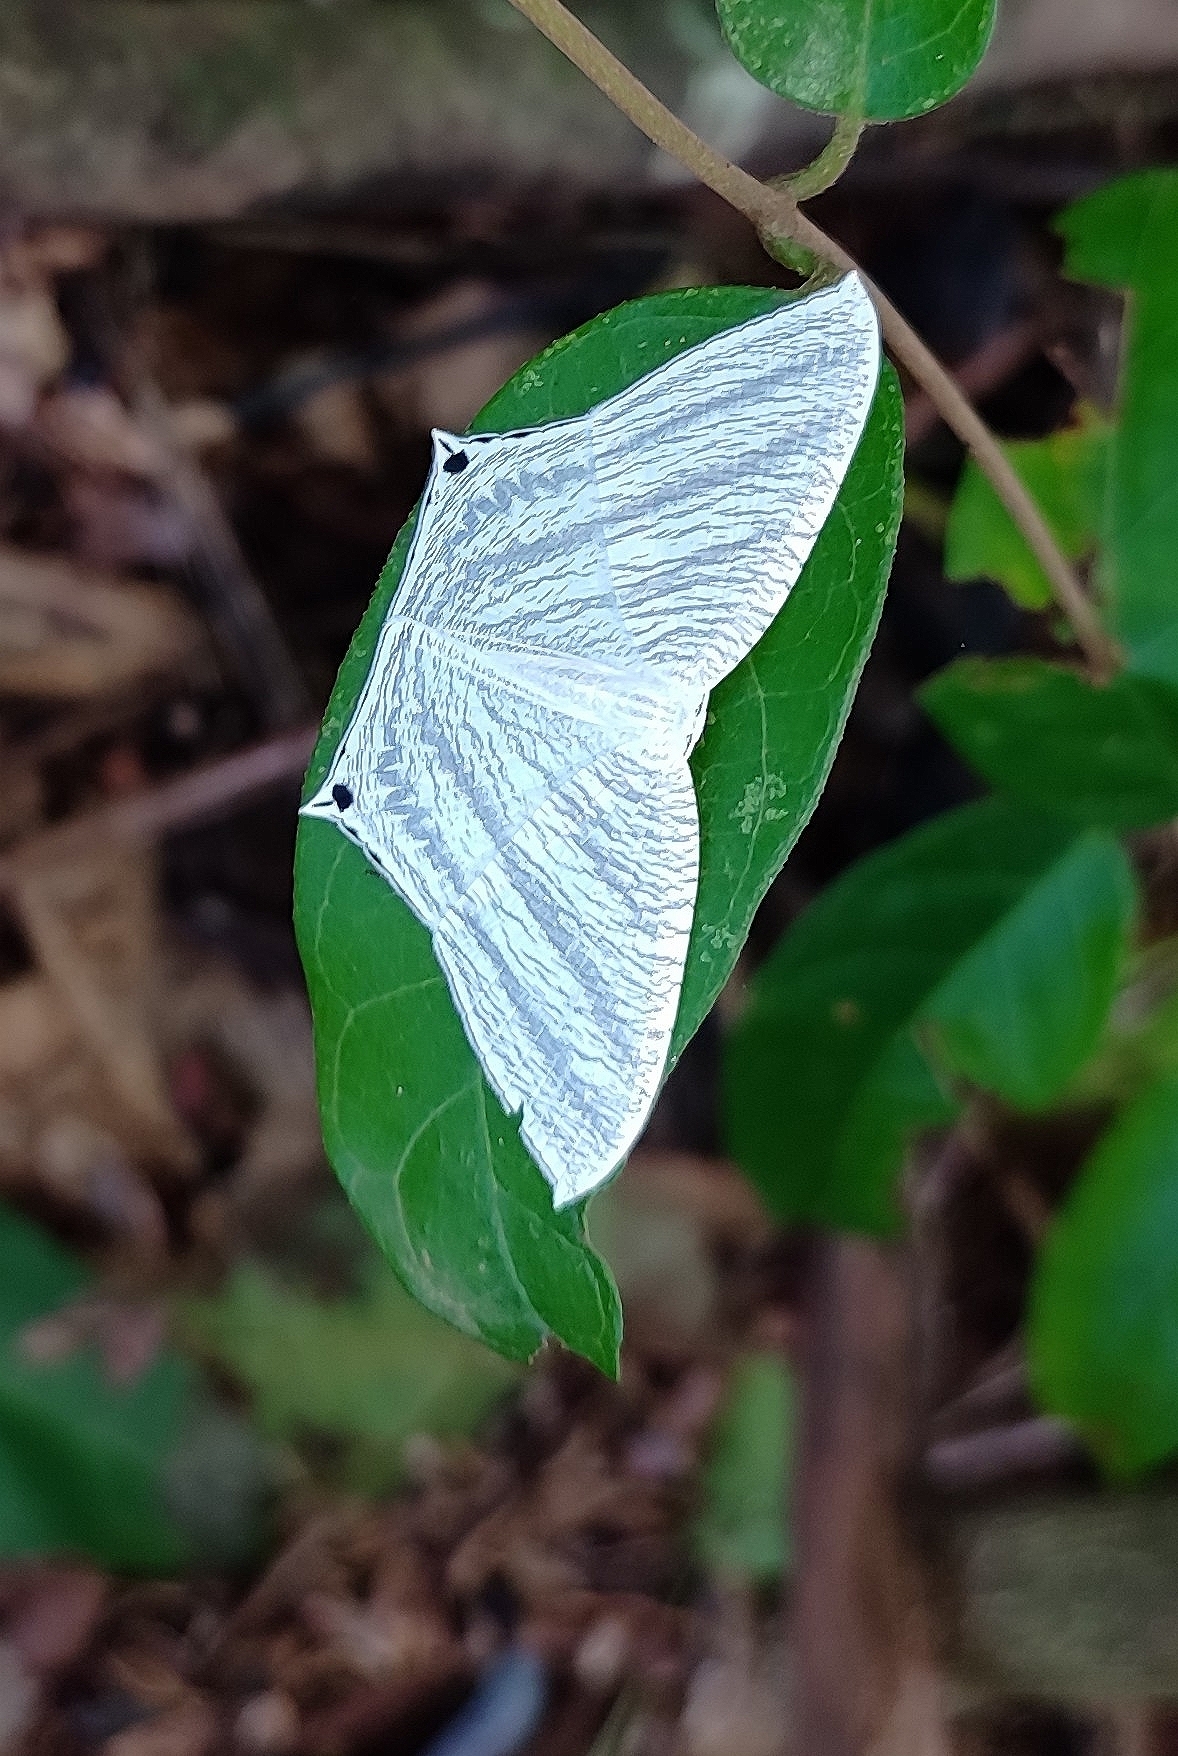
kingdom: Animalia
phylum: Arthropoda
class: Insecta
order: Lepidoptera
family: Uraniidae
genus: Micronia
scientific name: Micronia aculeata
